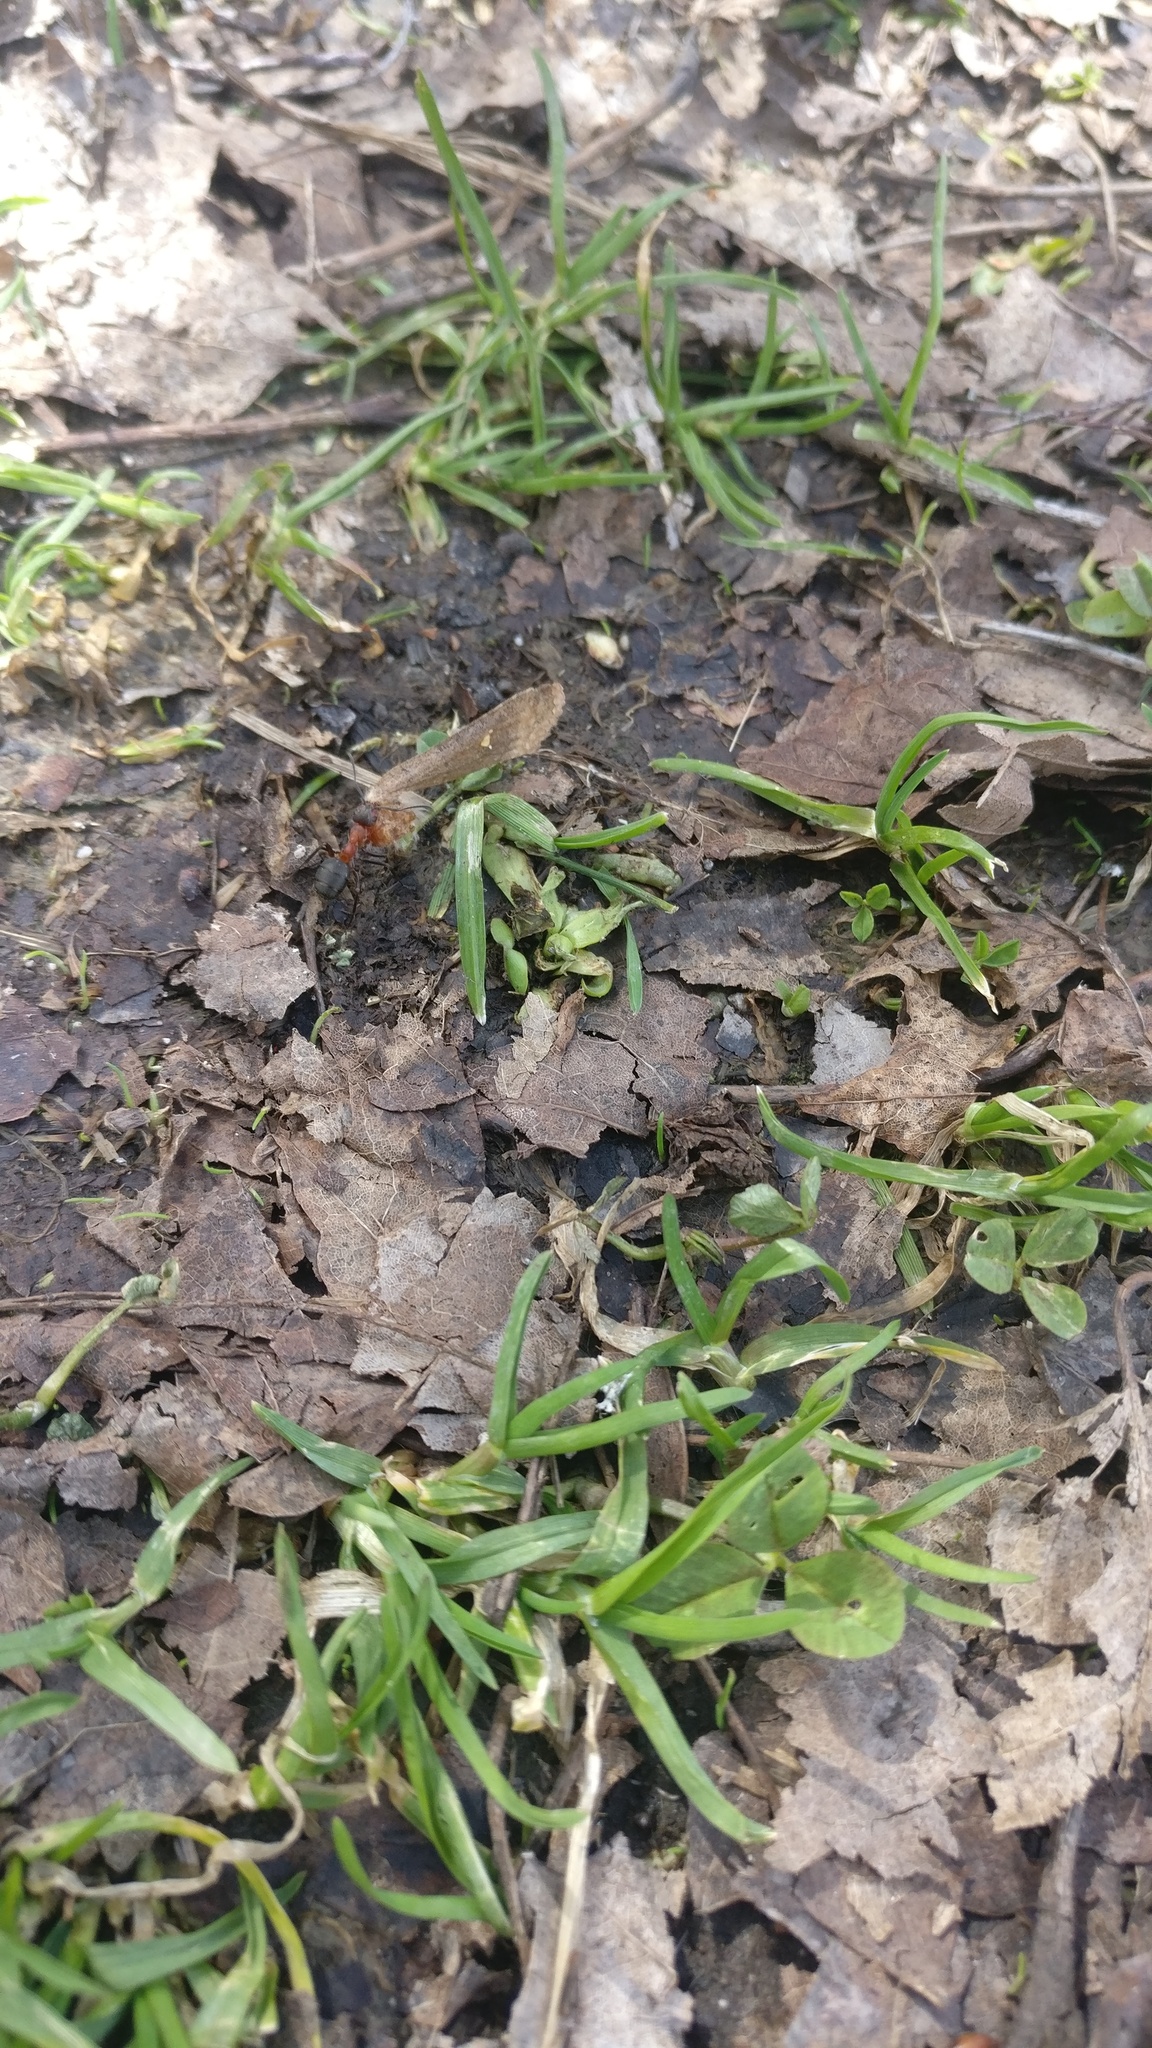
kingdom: Animalia
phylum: Arthropoda
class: Insecta
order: Lepidoptera
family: Noctuidae
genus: Eupsilia
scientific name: Eupsilia transversa
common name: Satellite
